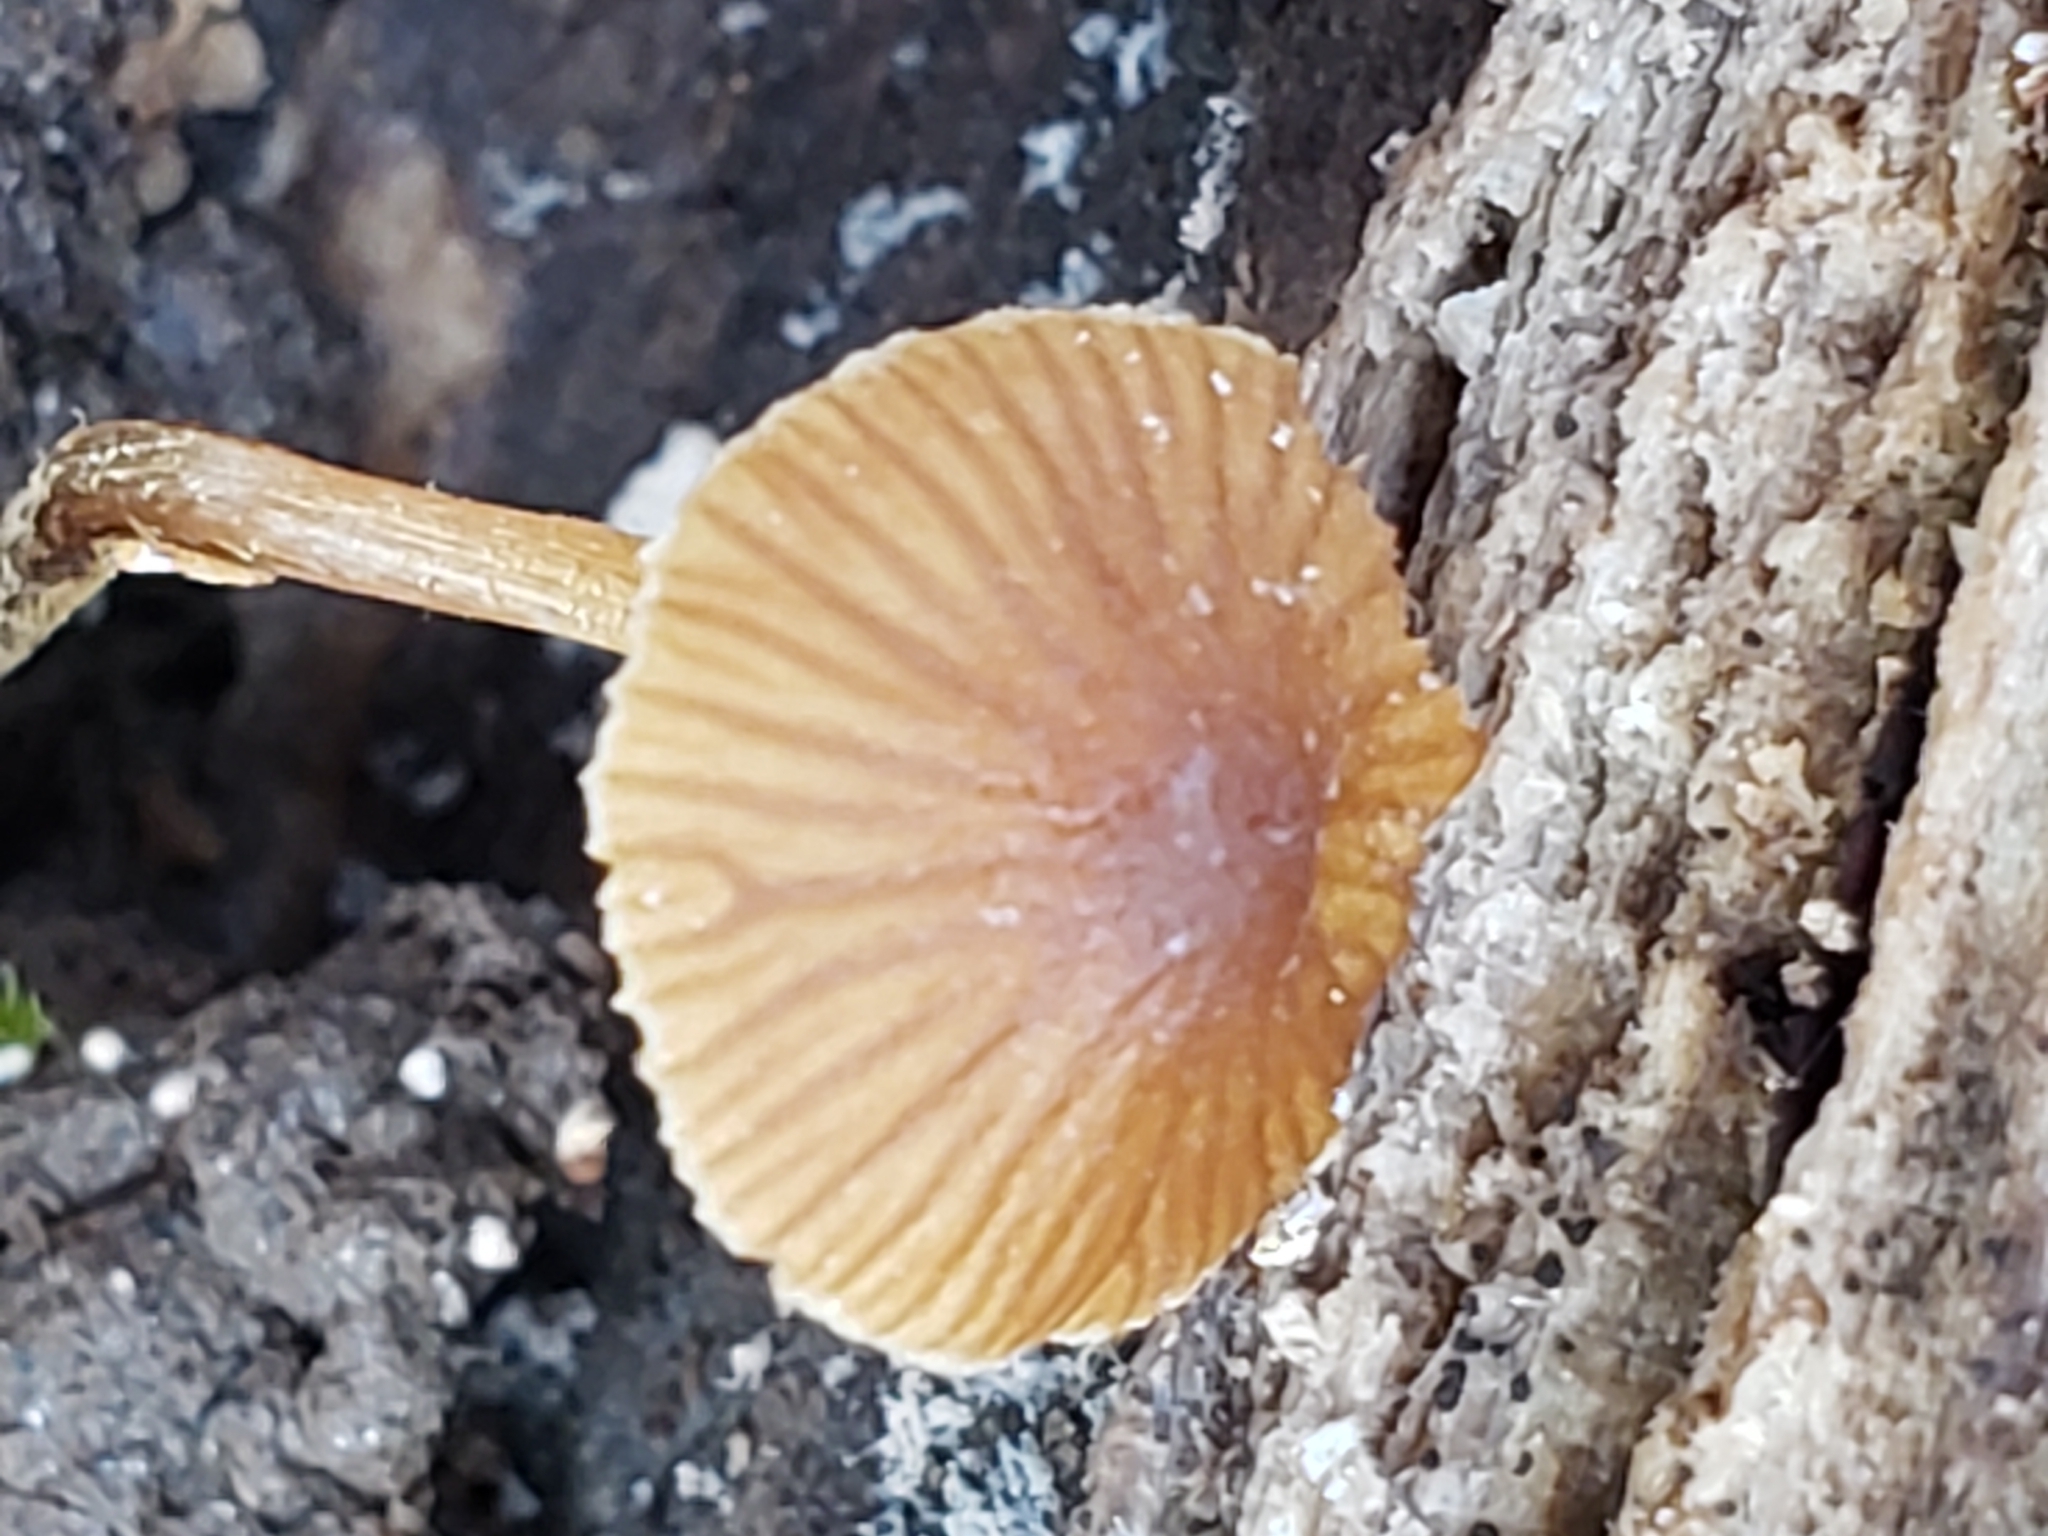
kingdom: Fungi
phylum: Basidiomycota
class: Agaricomycetes
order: Agaricales
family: Bolbitiaceae
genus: Conocybe
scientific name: Conocybe rugosa
